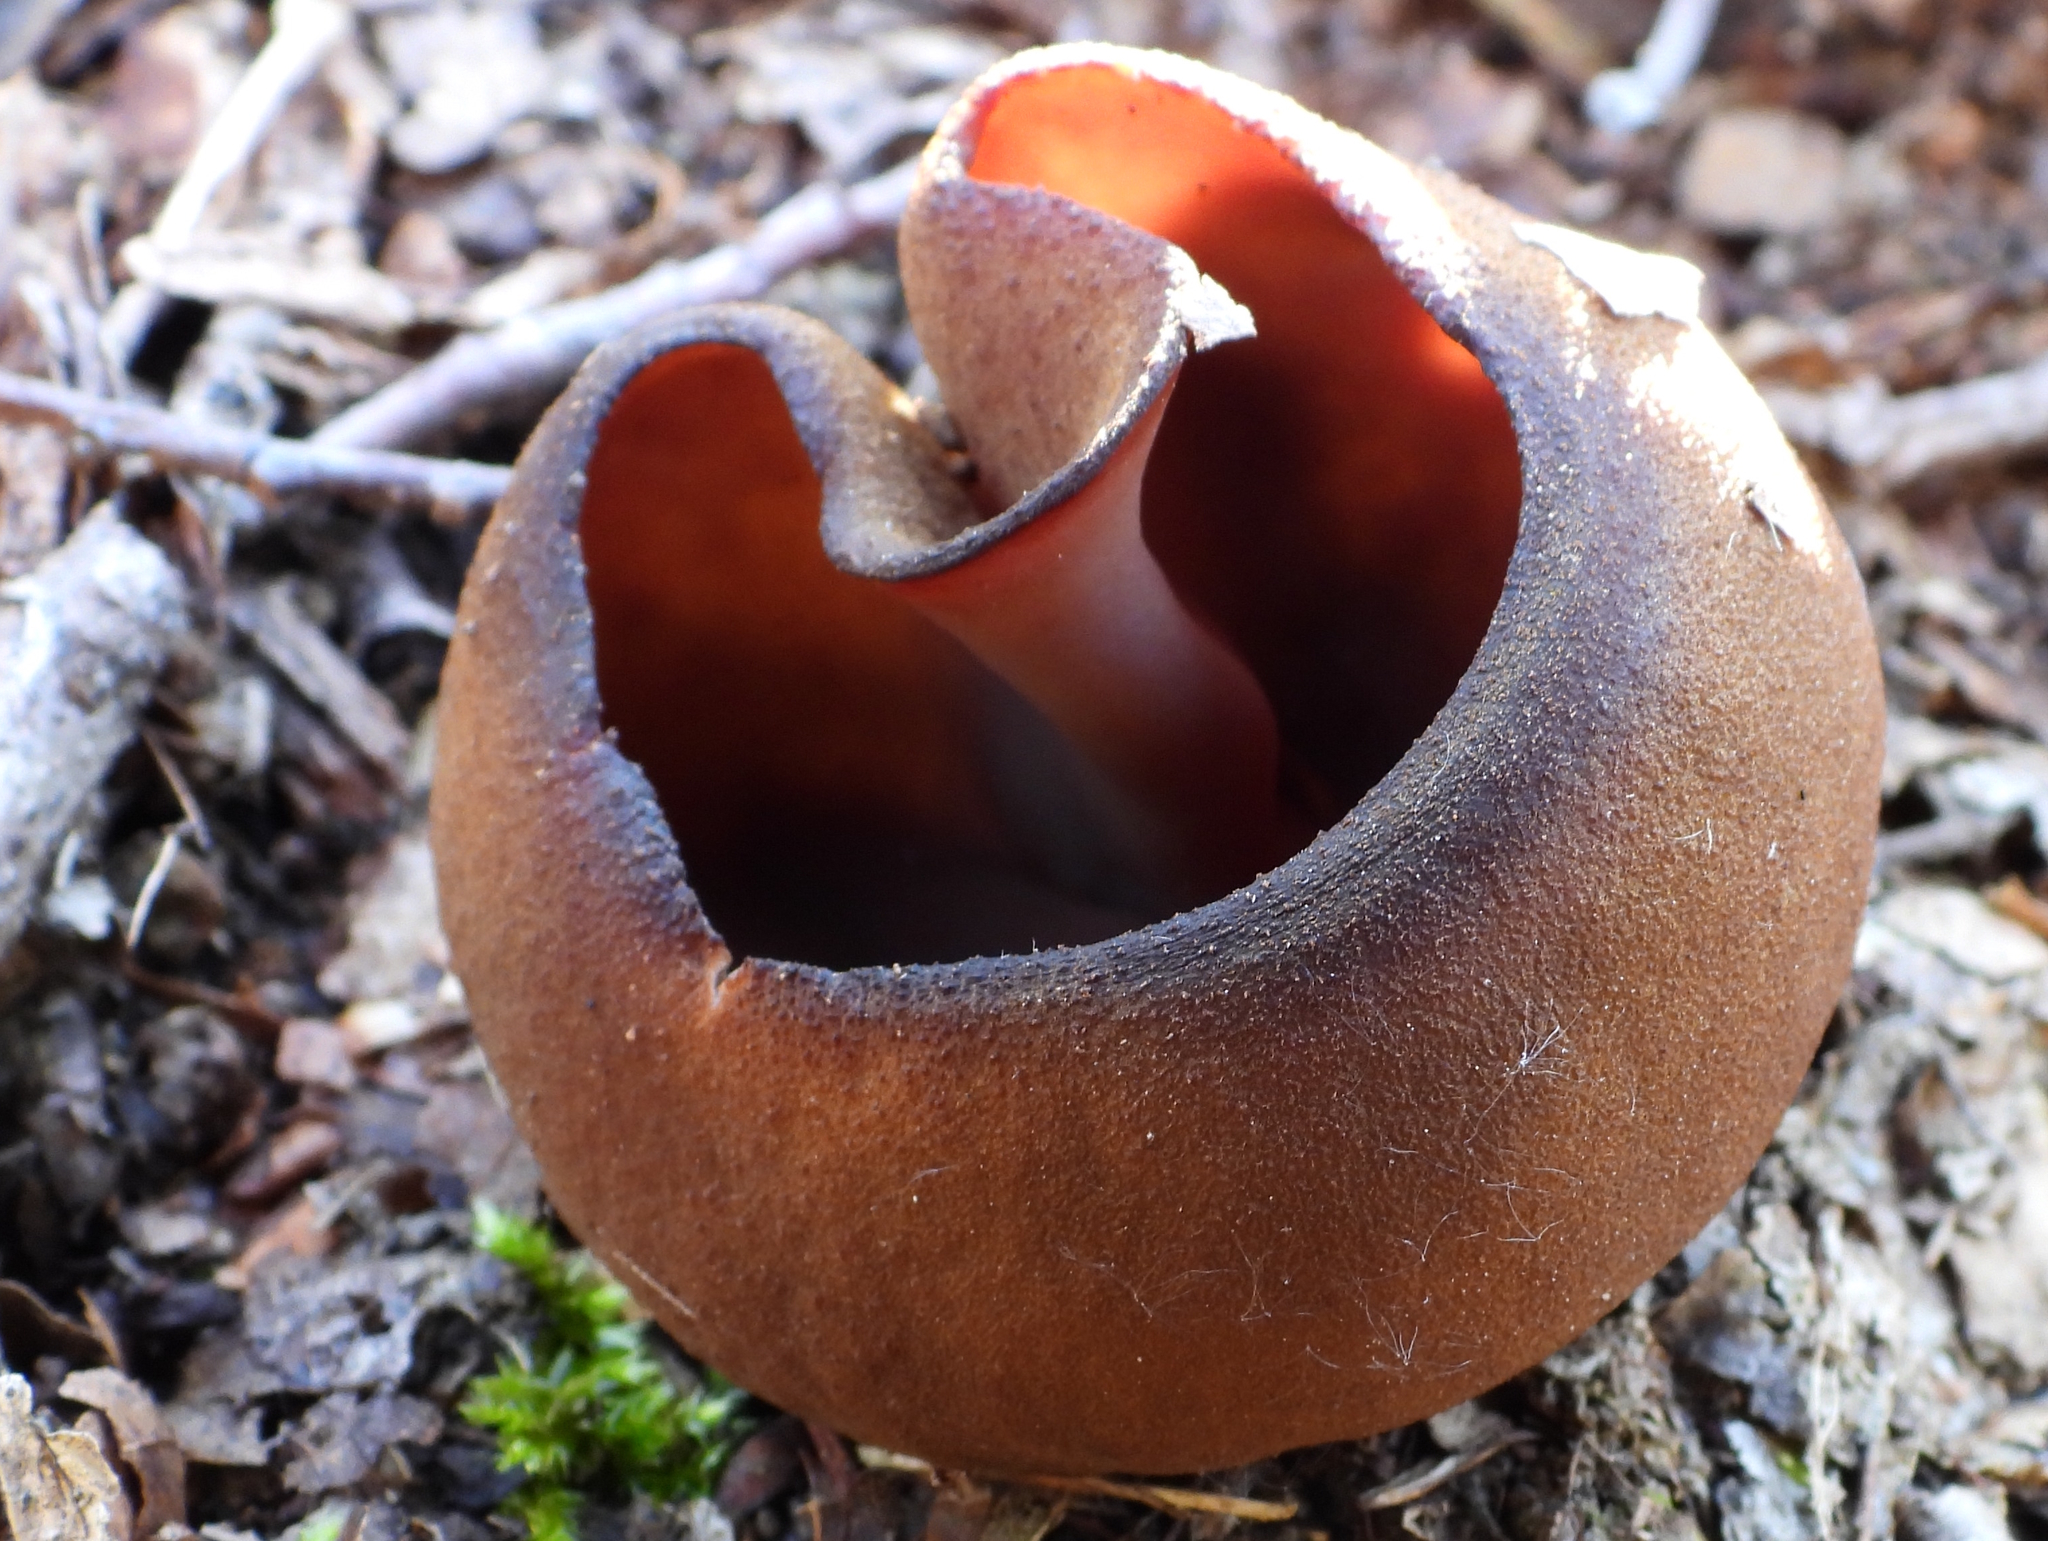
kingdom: Fungi
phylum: Ascomycota
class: Pezizomycetes
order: Pezizales
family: Pezizaceae
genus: Phylloscypha
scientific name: Phylloscypha phyllogena
